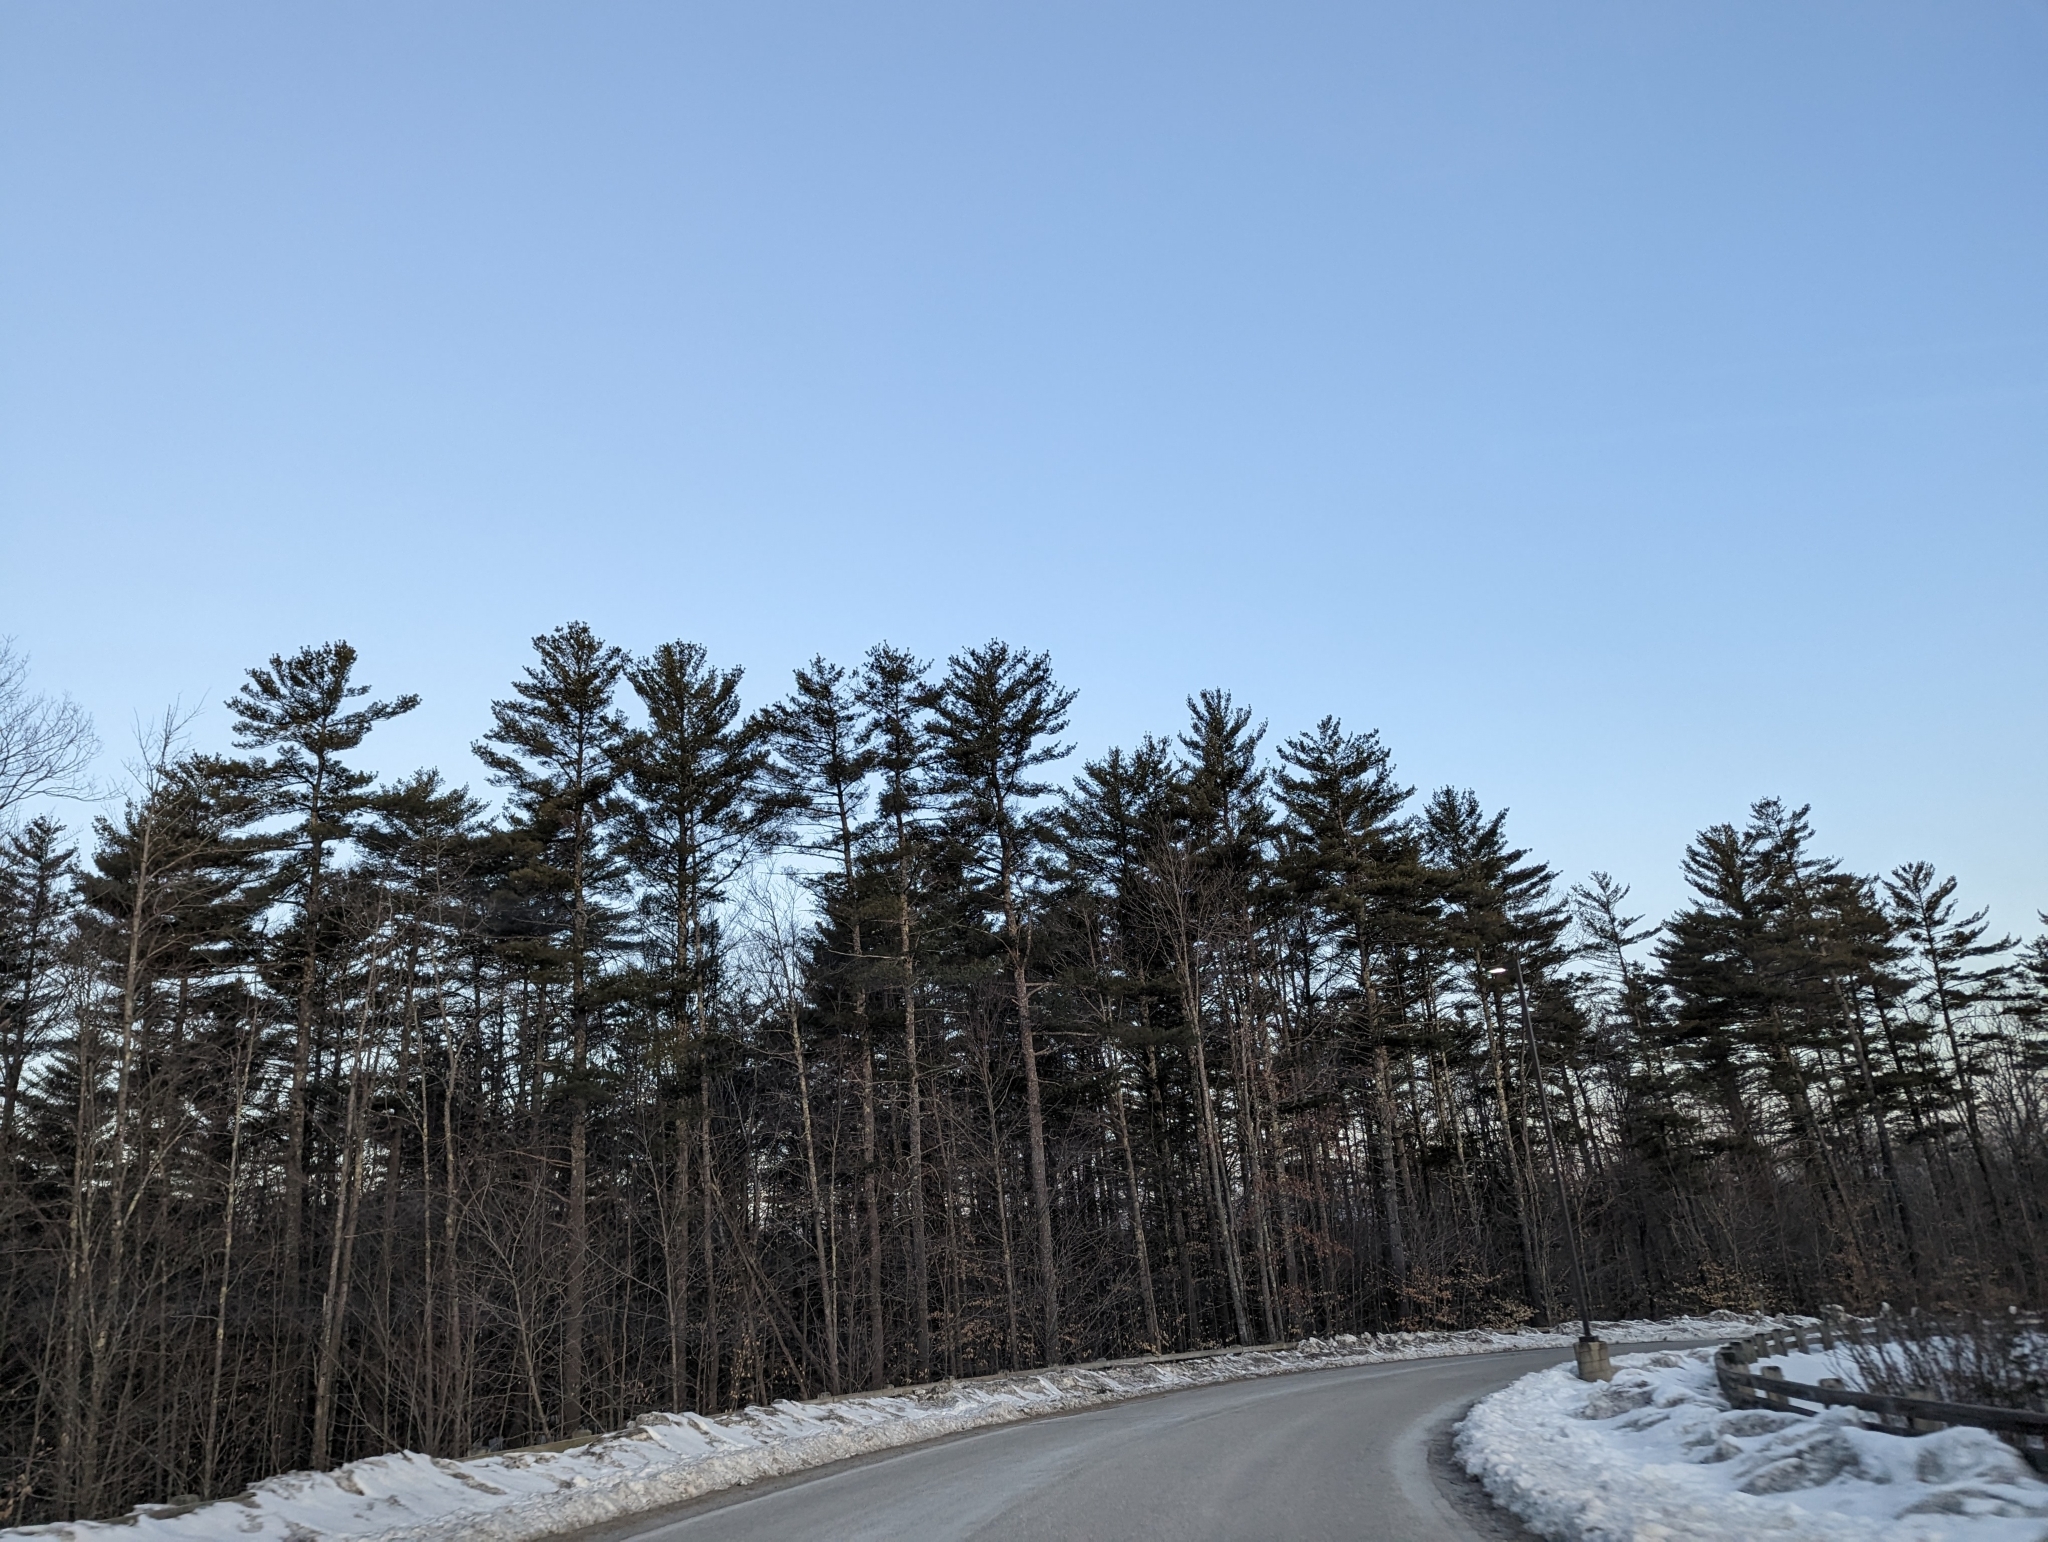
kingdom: Plantae
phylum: Tracheophyta
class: Pinopsida
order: Pinales
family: Pinaceae
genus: Pinus
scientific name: Pinus strobus
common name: Weymouth pine
